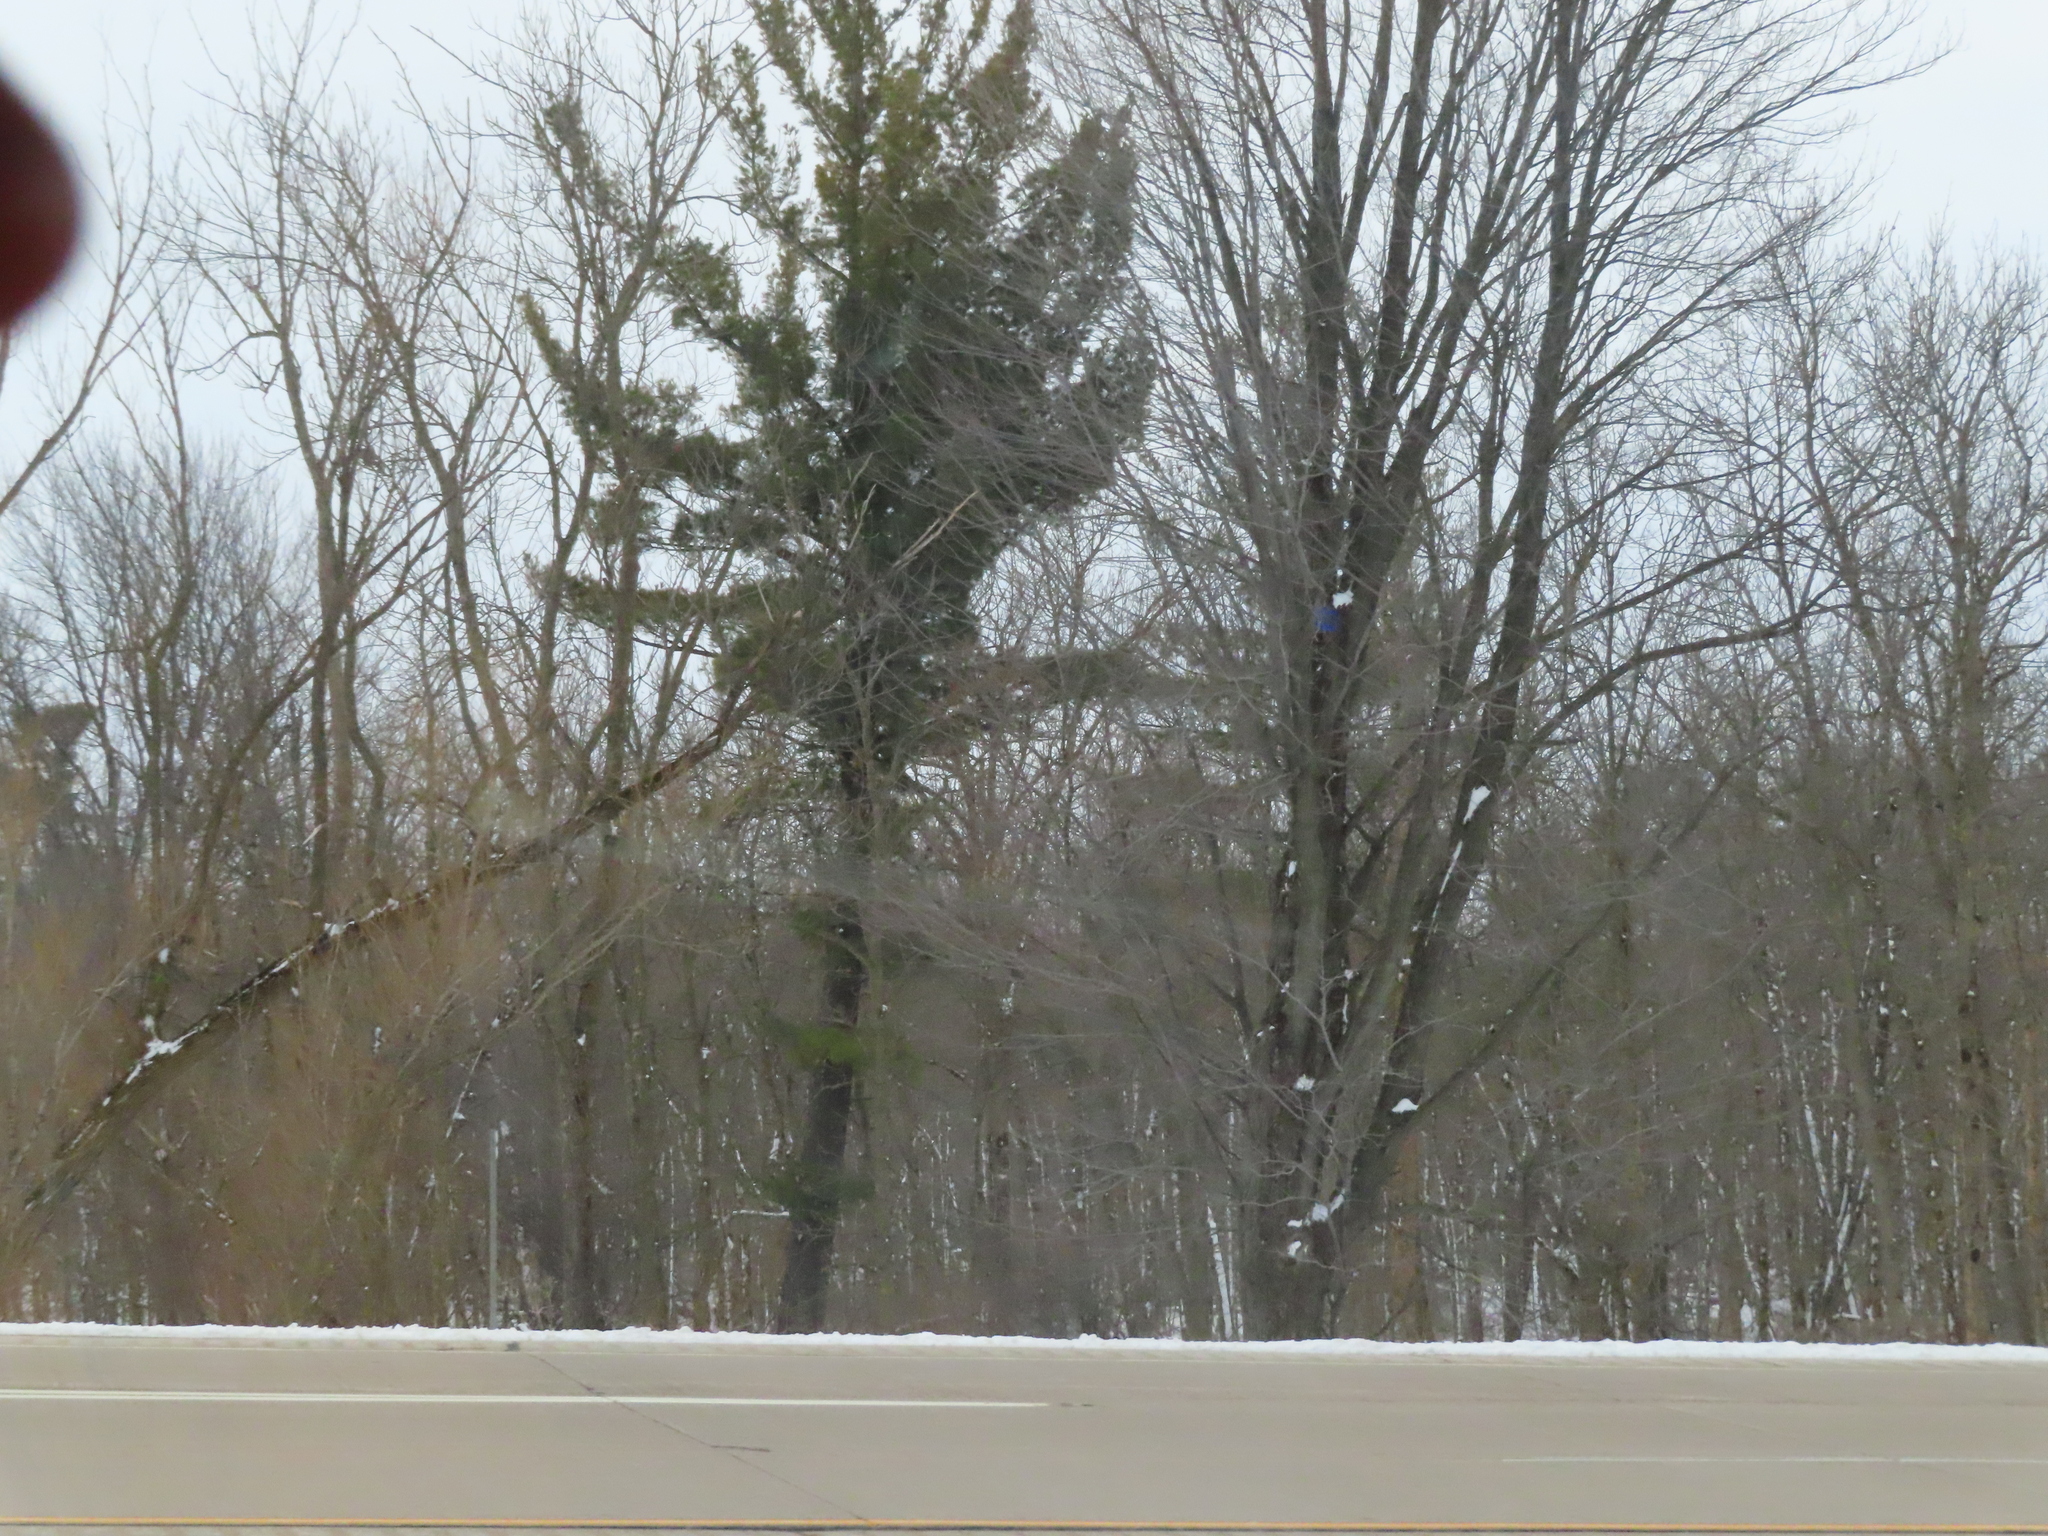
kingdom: Plantae
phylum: Tracheophyta
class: Pinopsida
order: Pinales
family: Pinaceae
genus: Pinus
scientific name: Pinus strobus
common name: Weymouth pine
